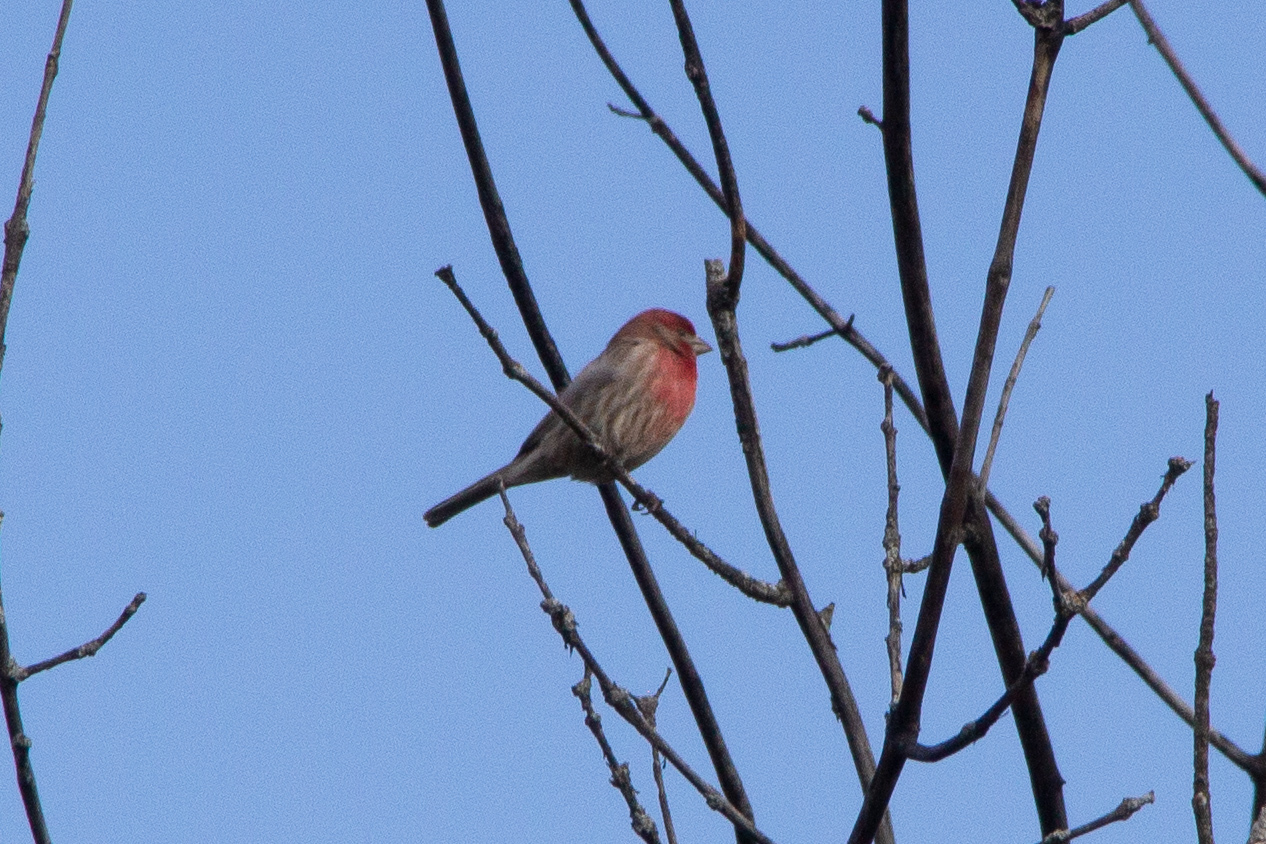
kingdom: Animalia
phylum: Chordata
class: Aves
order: Passeriformes
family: Fringillidae
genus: Haemorhous
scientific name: Haemorhous mexicanus
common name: House finch
